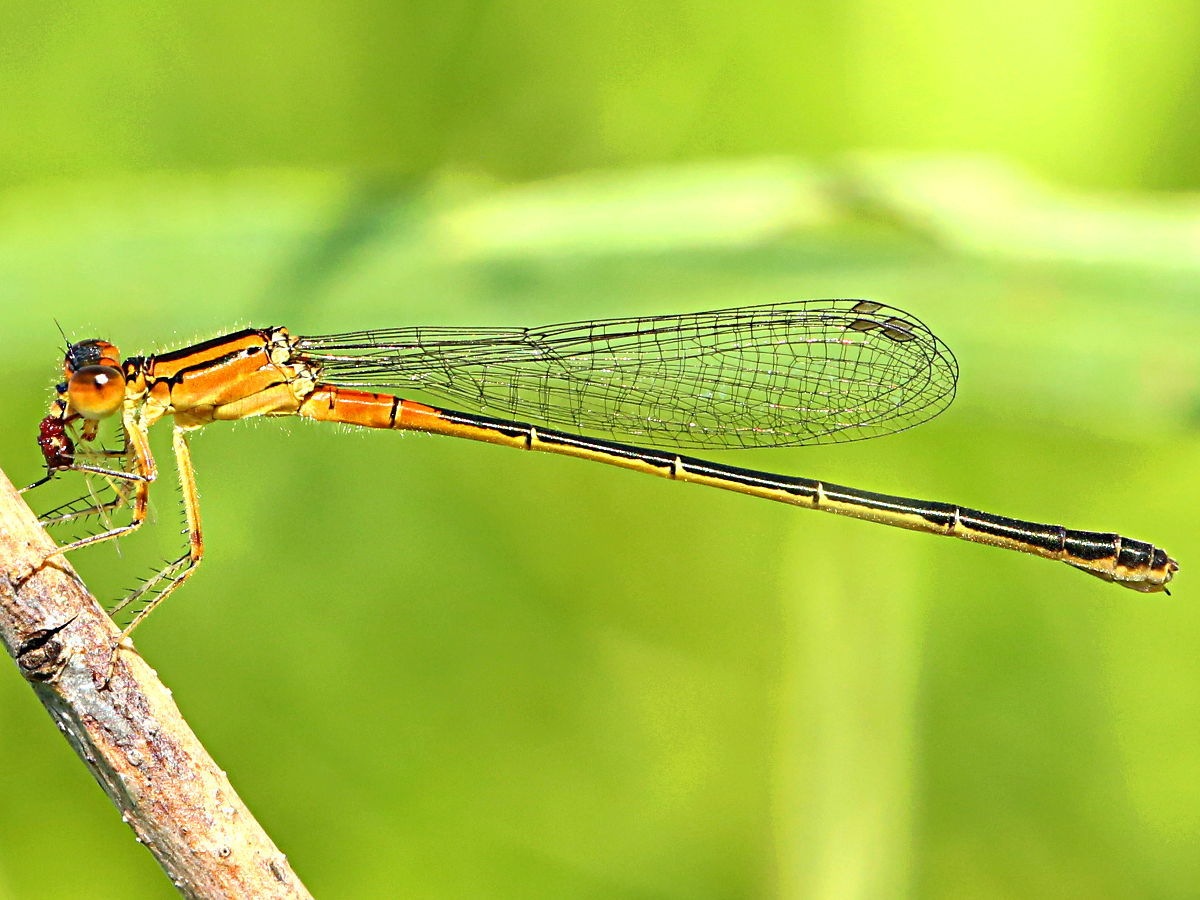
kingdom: Animalia
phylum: Arthropoda
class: Insecta
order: Odonata
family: Coenagrionidae
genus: Ischnura
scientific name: Ischnura verticalis
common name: Eastern forktail
